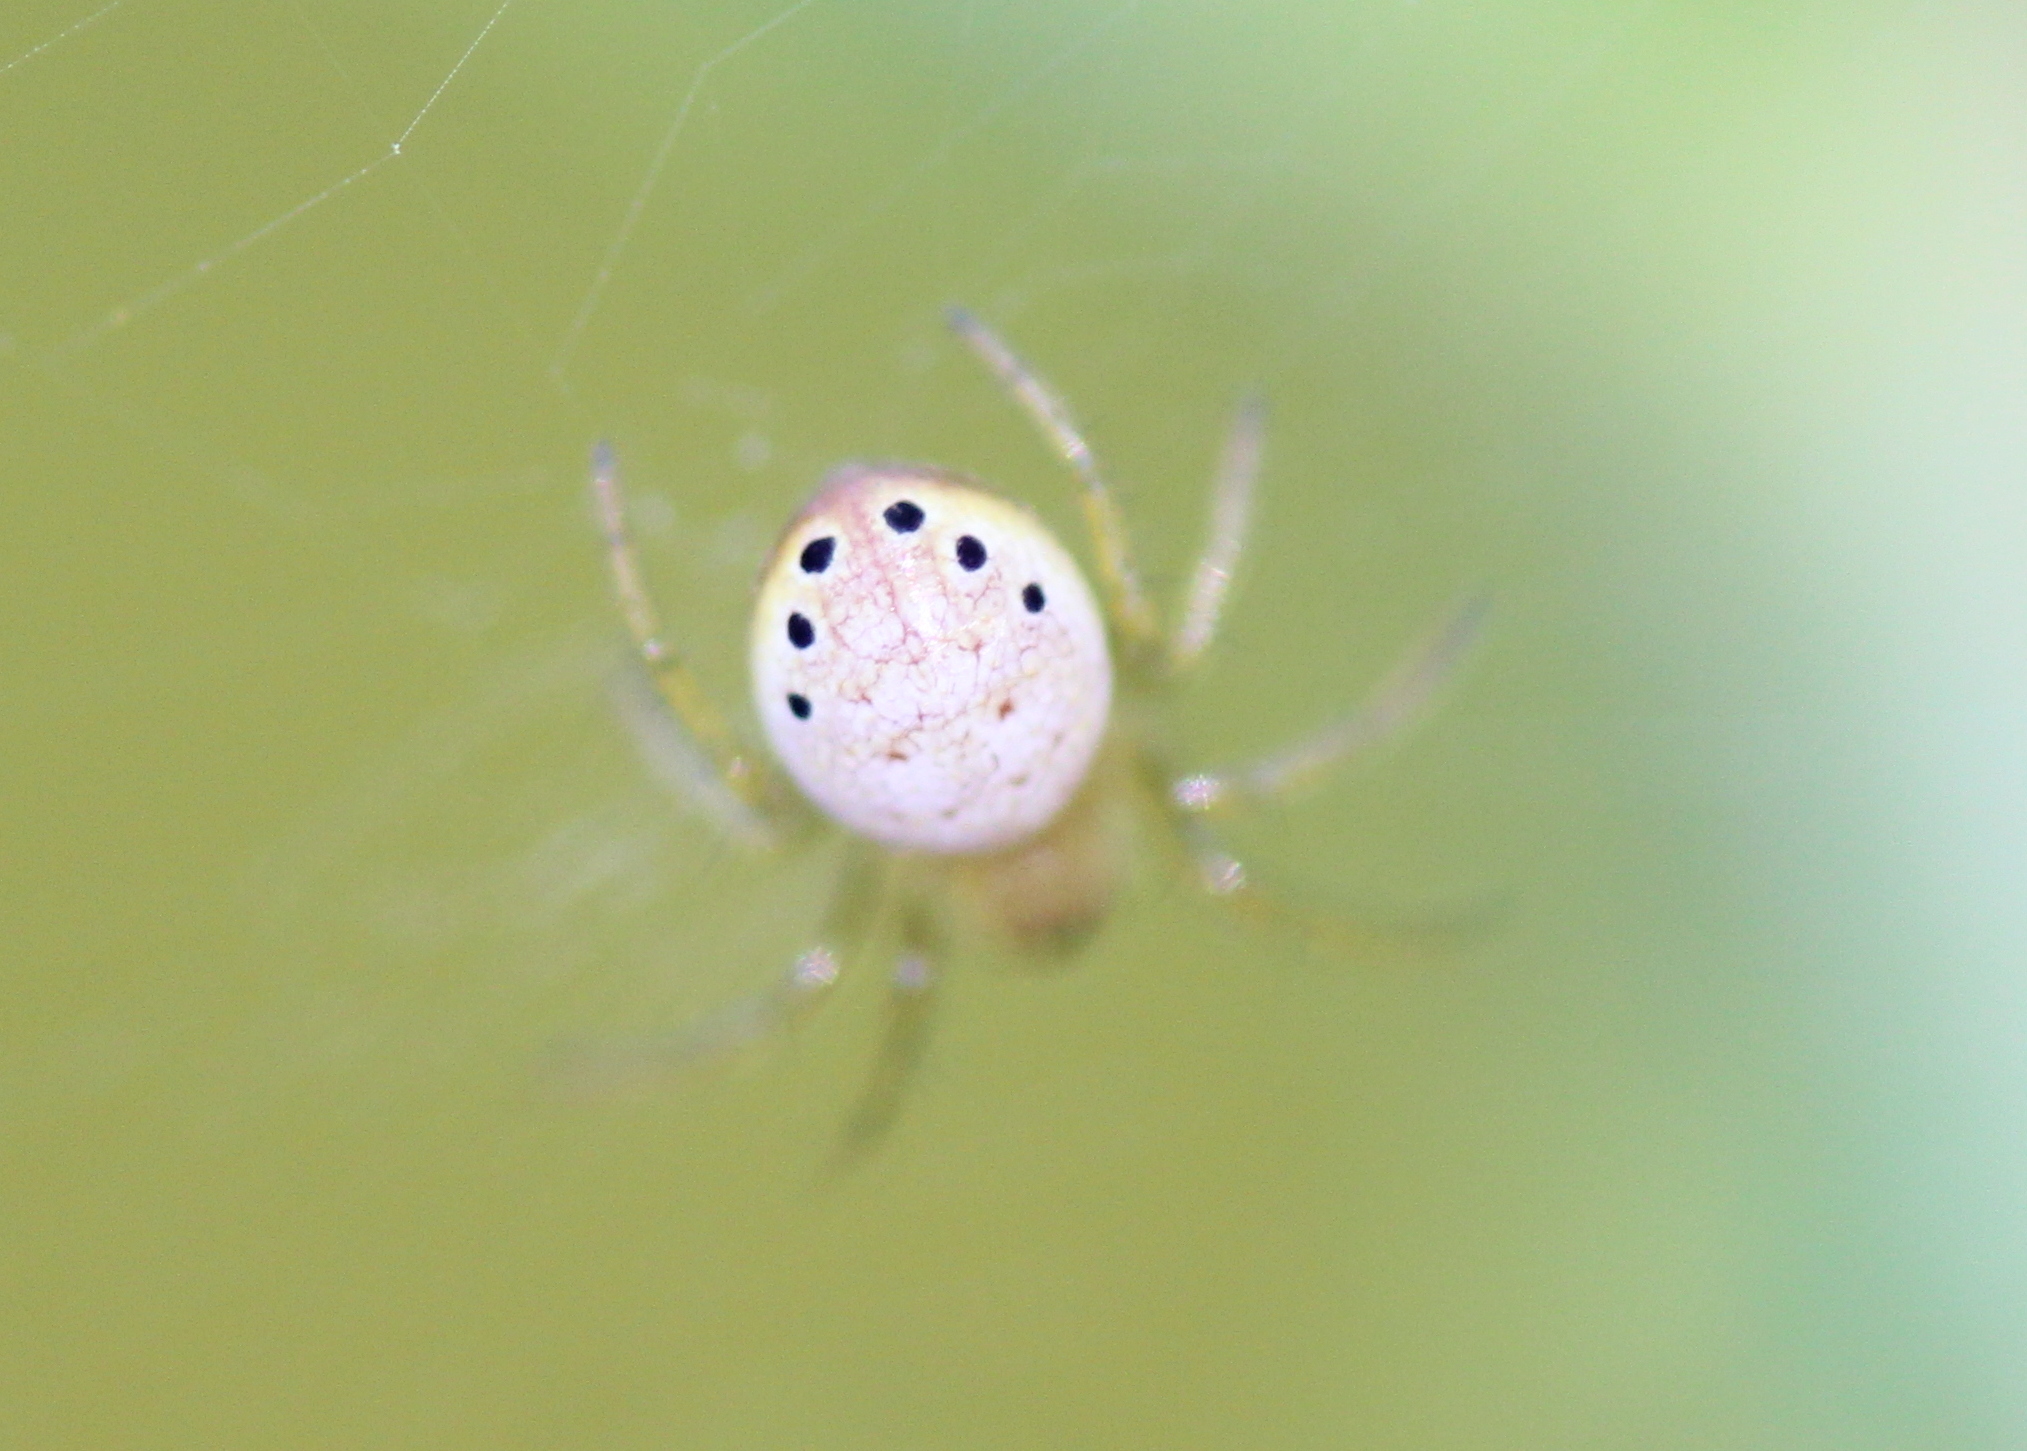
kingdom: Animalia
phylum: Arthropoda
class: Arachnida
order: Araneae
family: Araneidae
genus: Araniella
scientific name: Araniella displicata
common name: Sixspotted orb weaver
